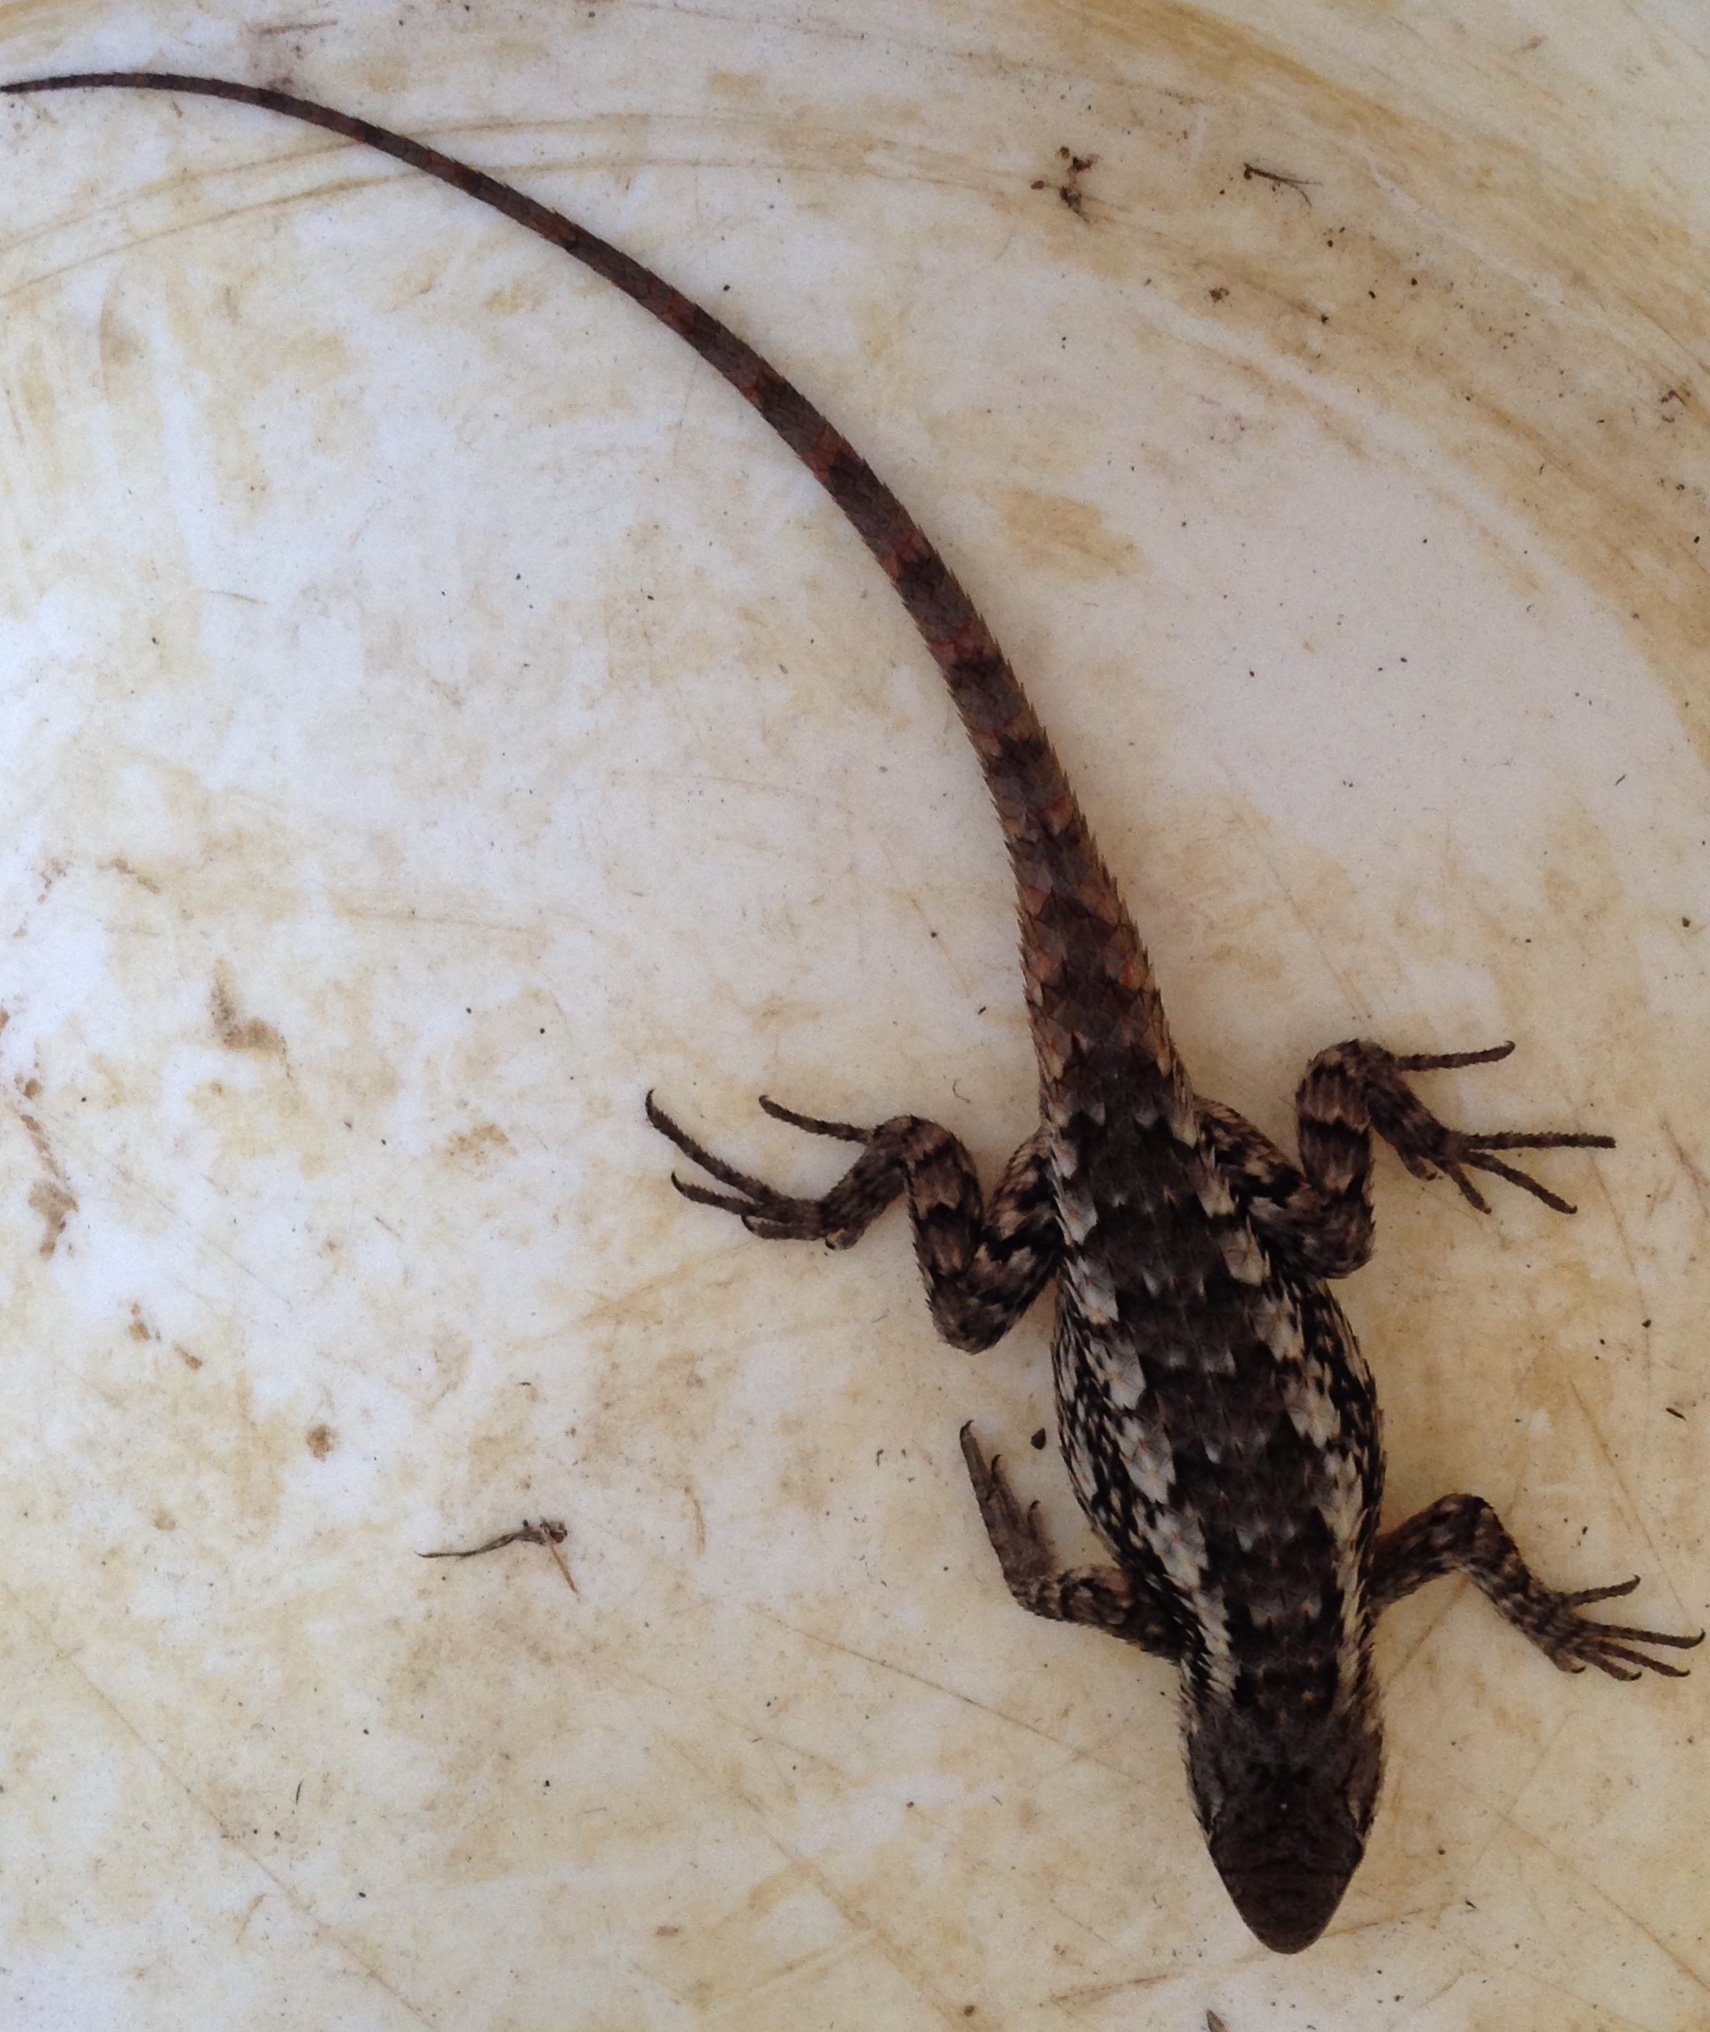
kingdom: Animalia
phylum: Chordata
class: Squamata
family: Phrynosomatidae
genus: Sceloporus
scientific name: Sceloporus olivaceus
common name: Texas spiny lizard
